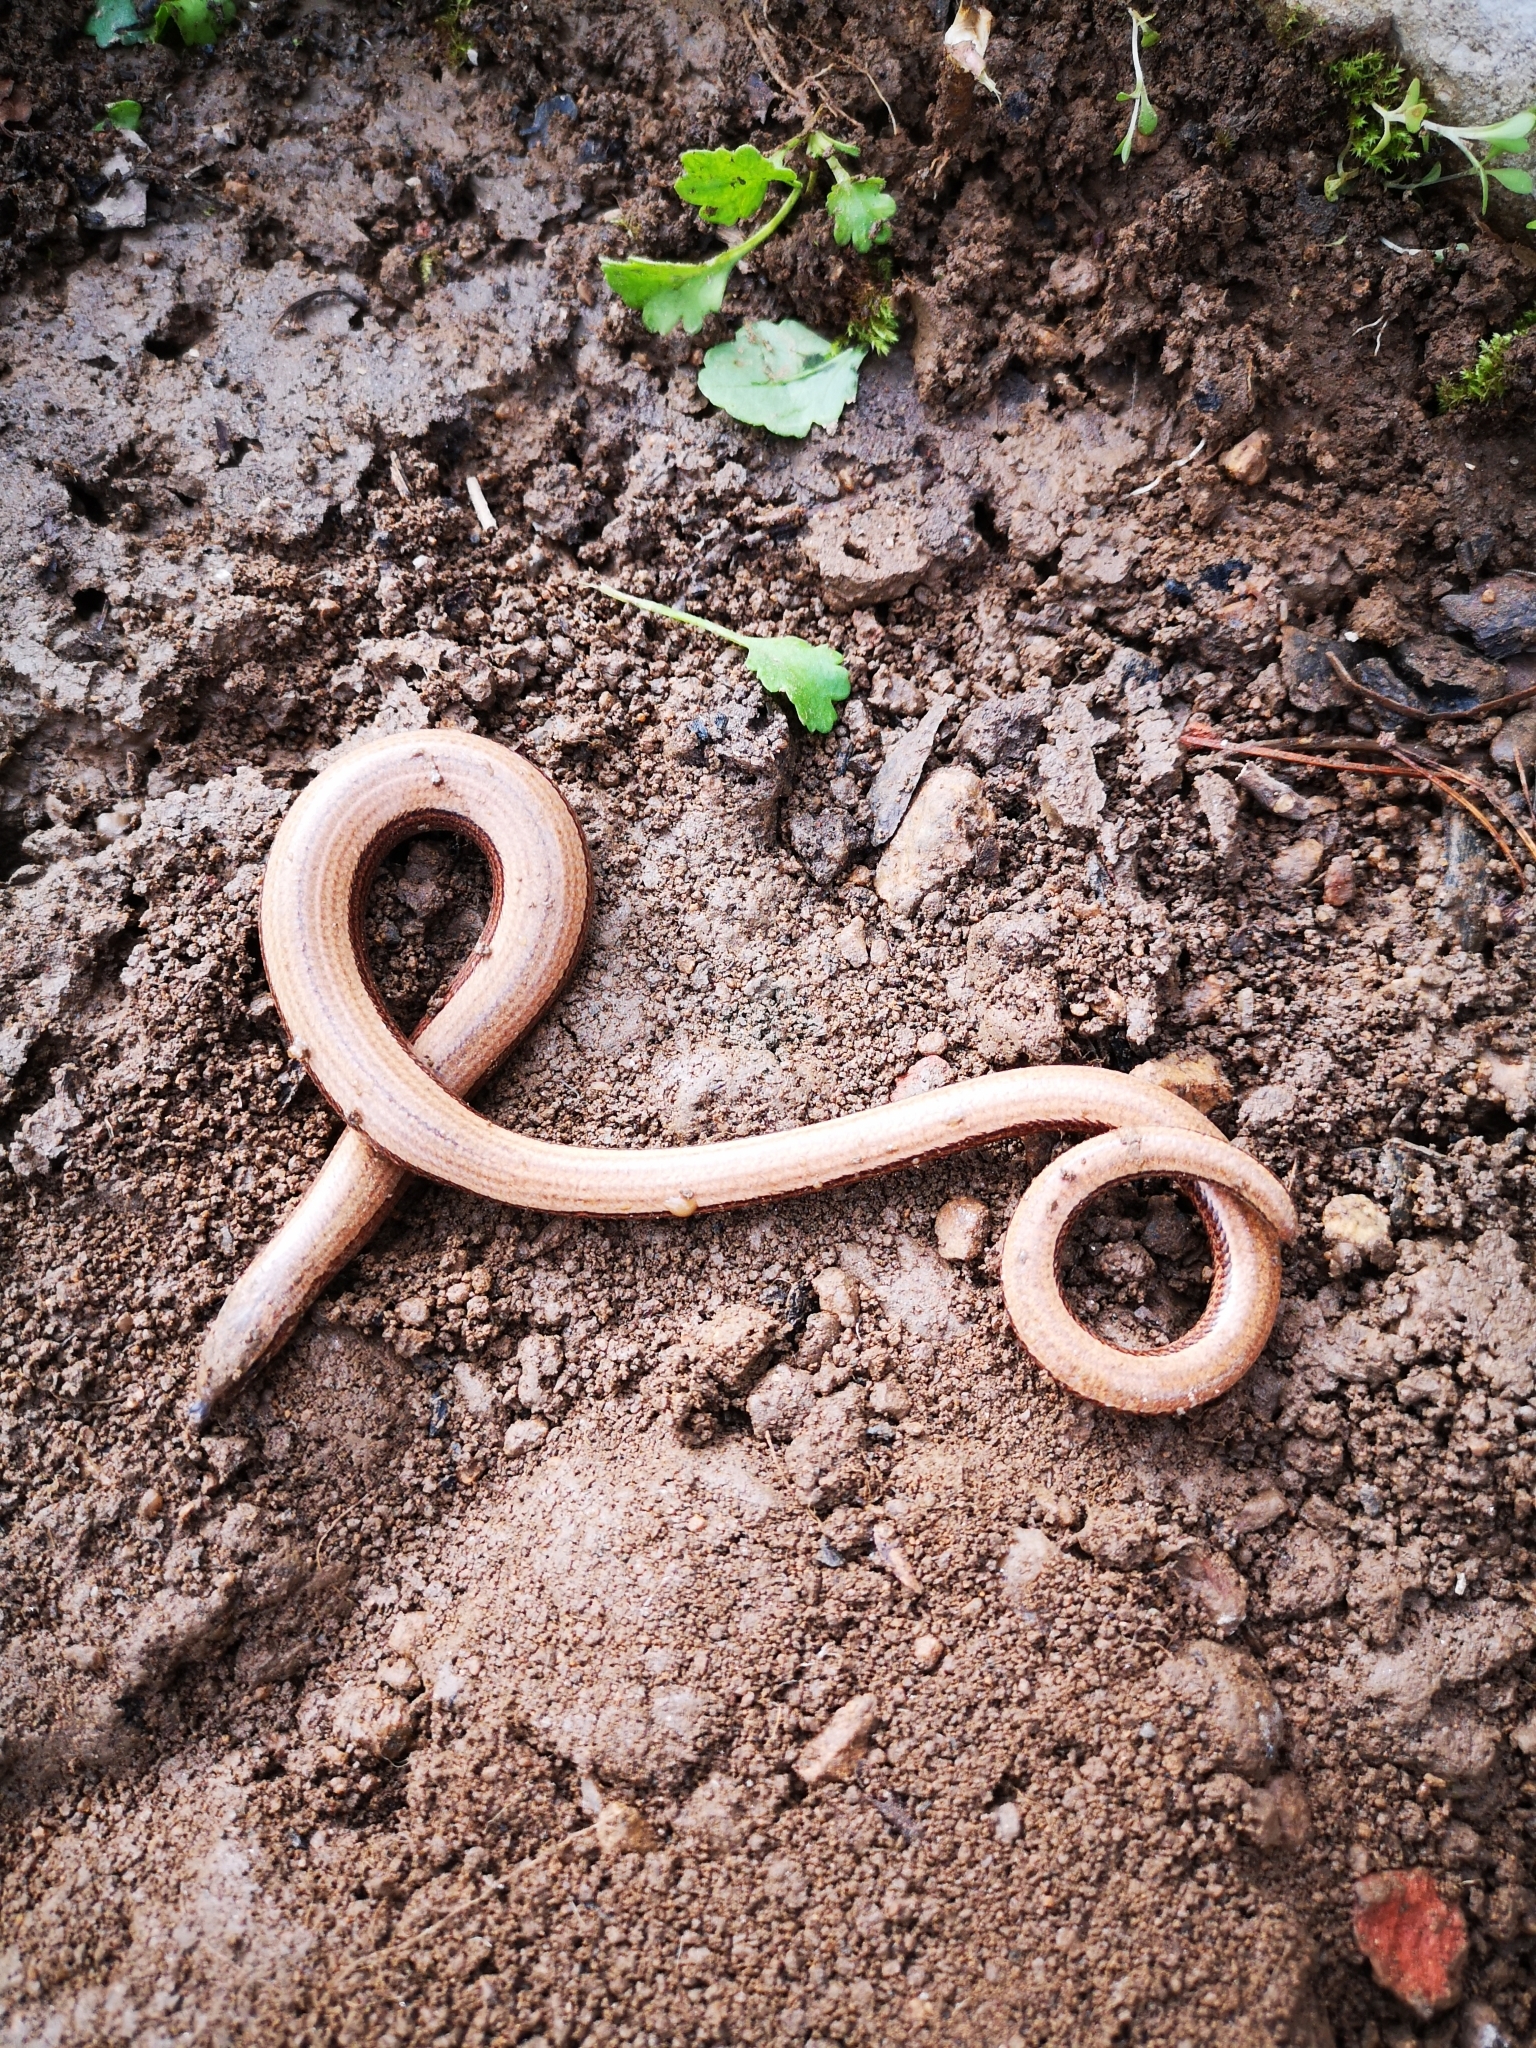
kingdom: Animalia
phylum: Chordata
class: Squamata
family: Anguidae
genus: Anguis
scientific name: Anguis fragilis
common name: Slow worm
